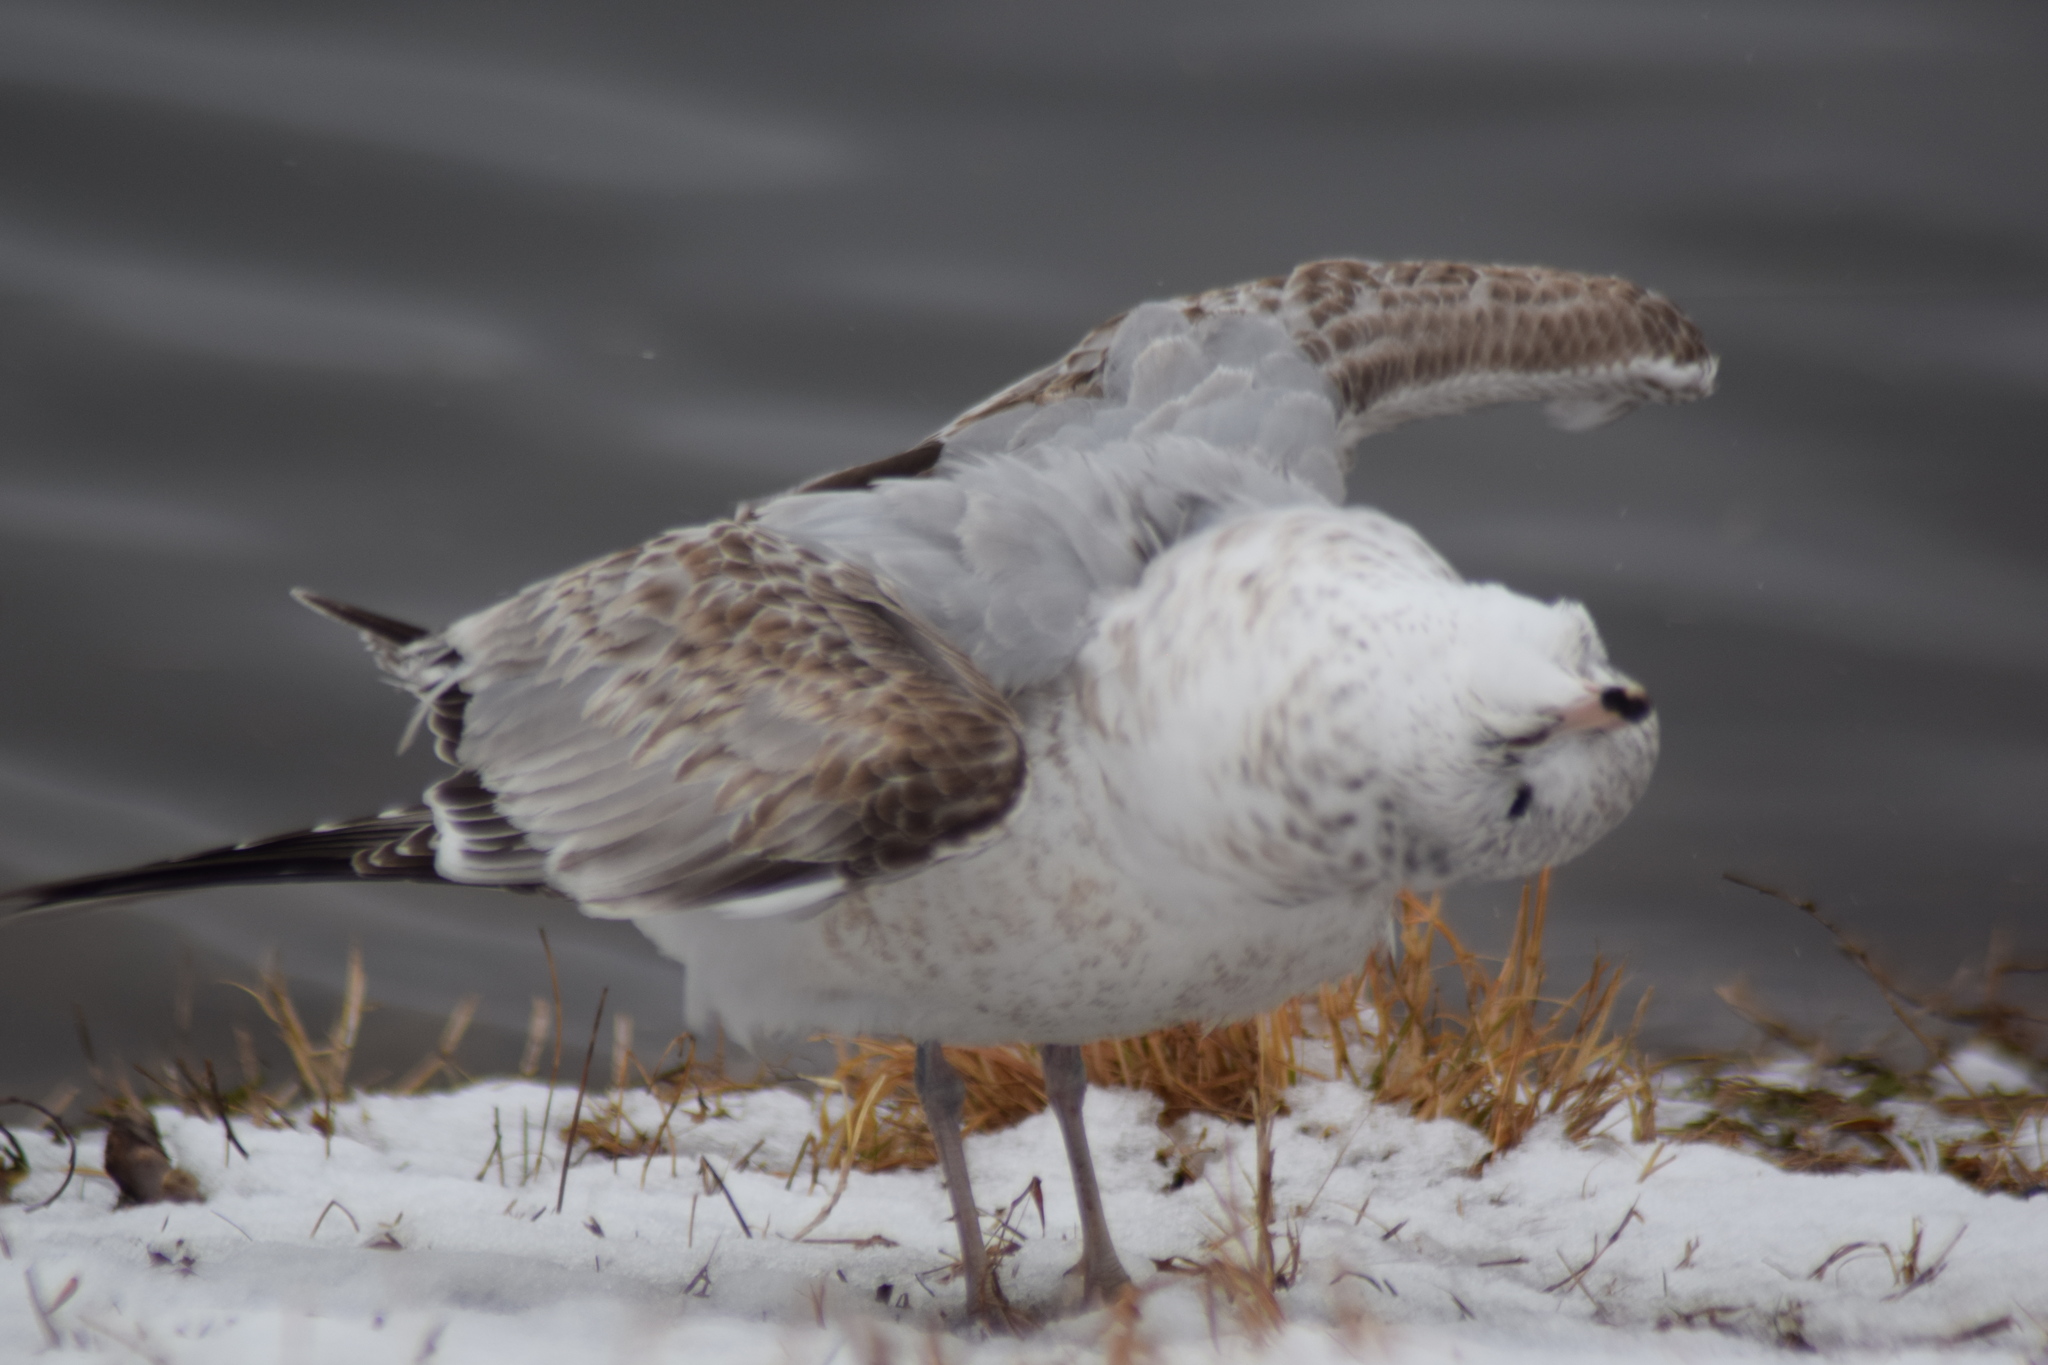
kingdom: Animalia
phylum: Chordata
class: Aves
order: Charadriiformes
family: Laridae
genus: Larus
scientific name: Larus delawarensis
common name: Ring-billed gull
